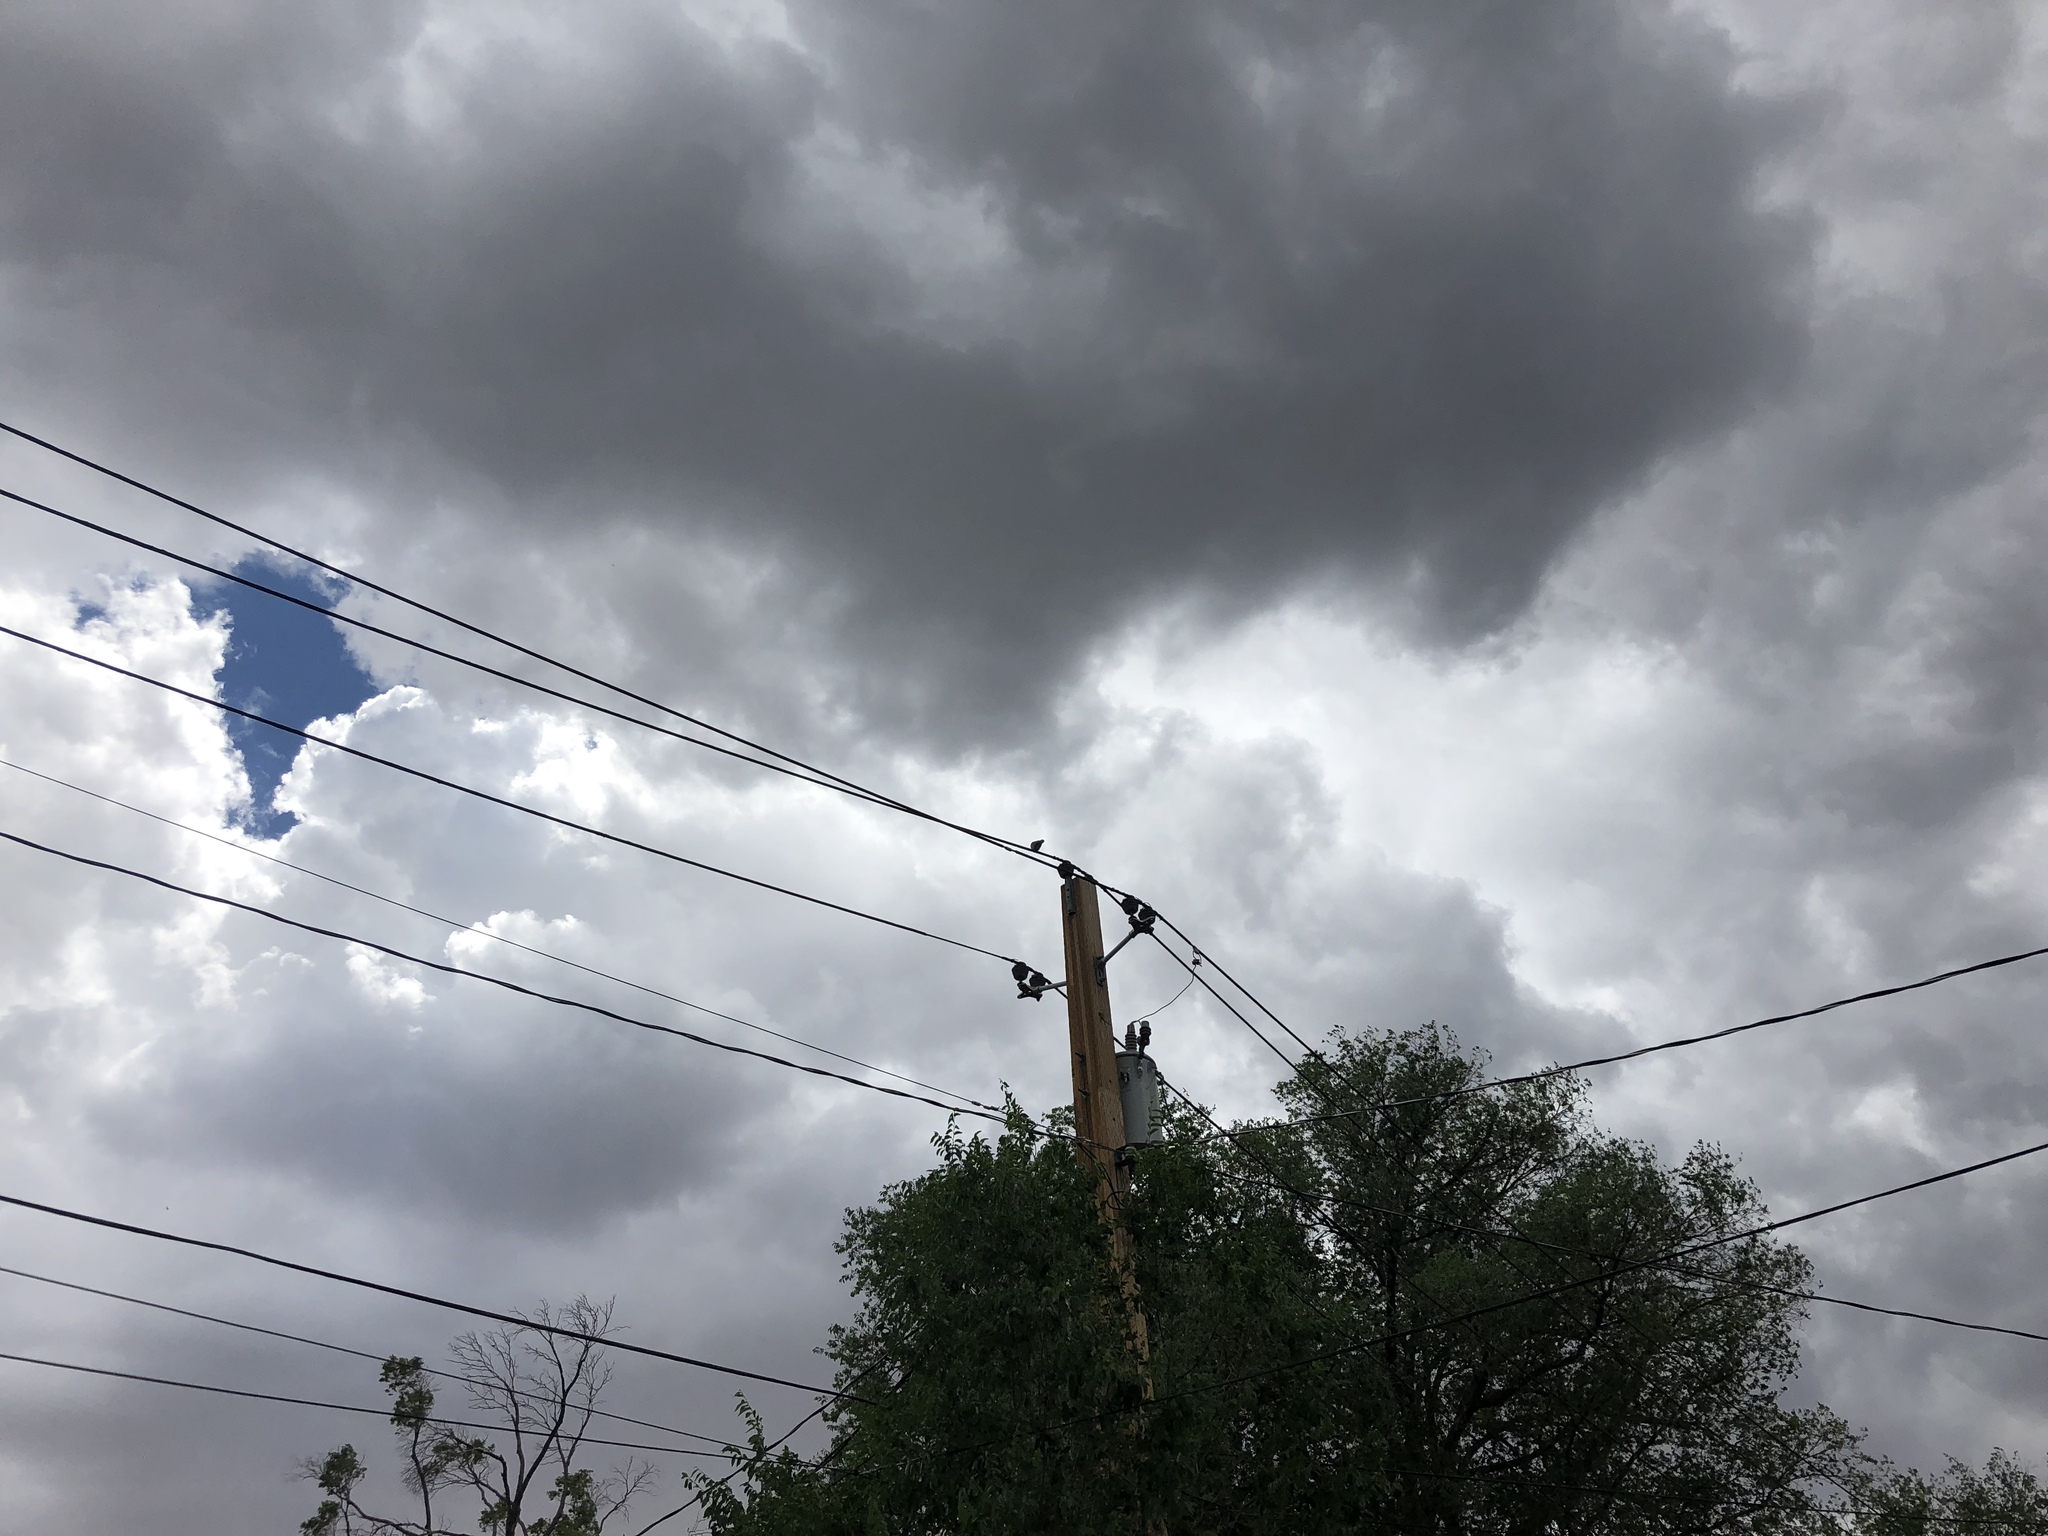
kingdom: Animalia
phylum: Chordata
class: Aves
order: Columbiformes
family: Columbidae
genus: Zenaida
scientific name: Zenaida asiatica
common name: White-winged dove
